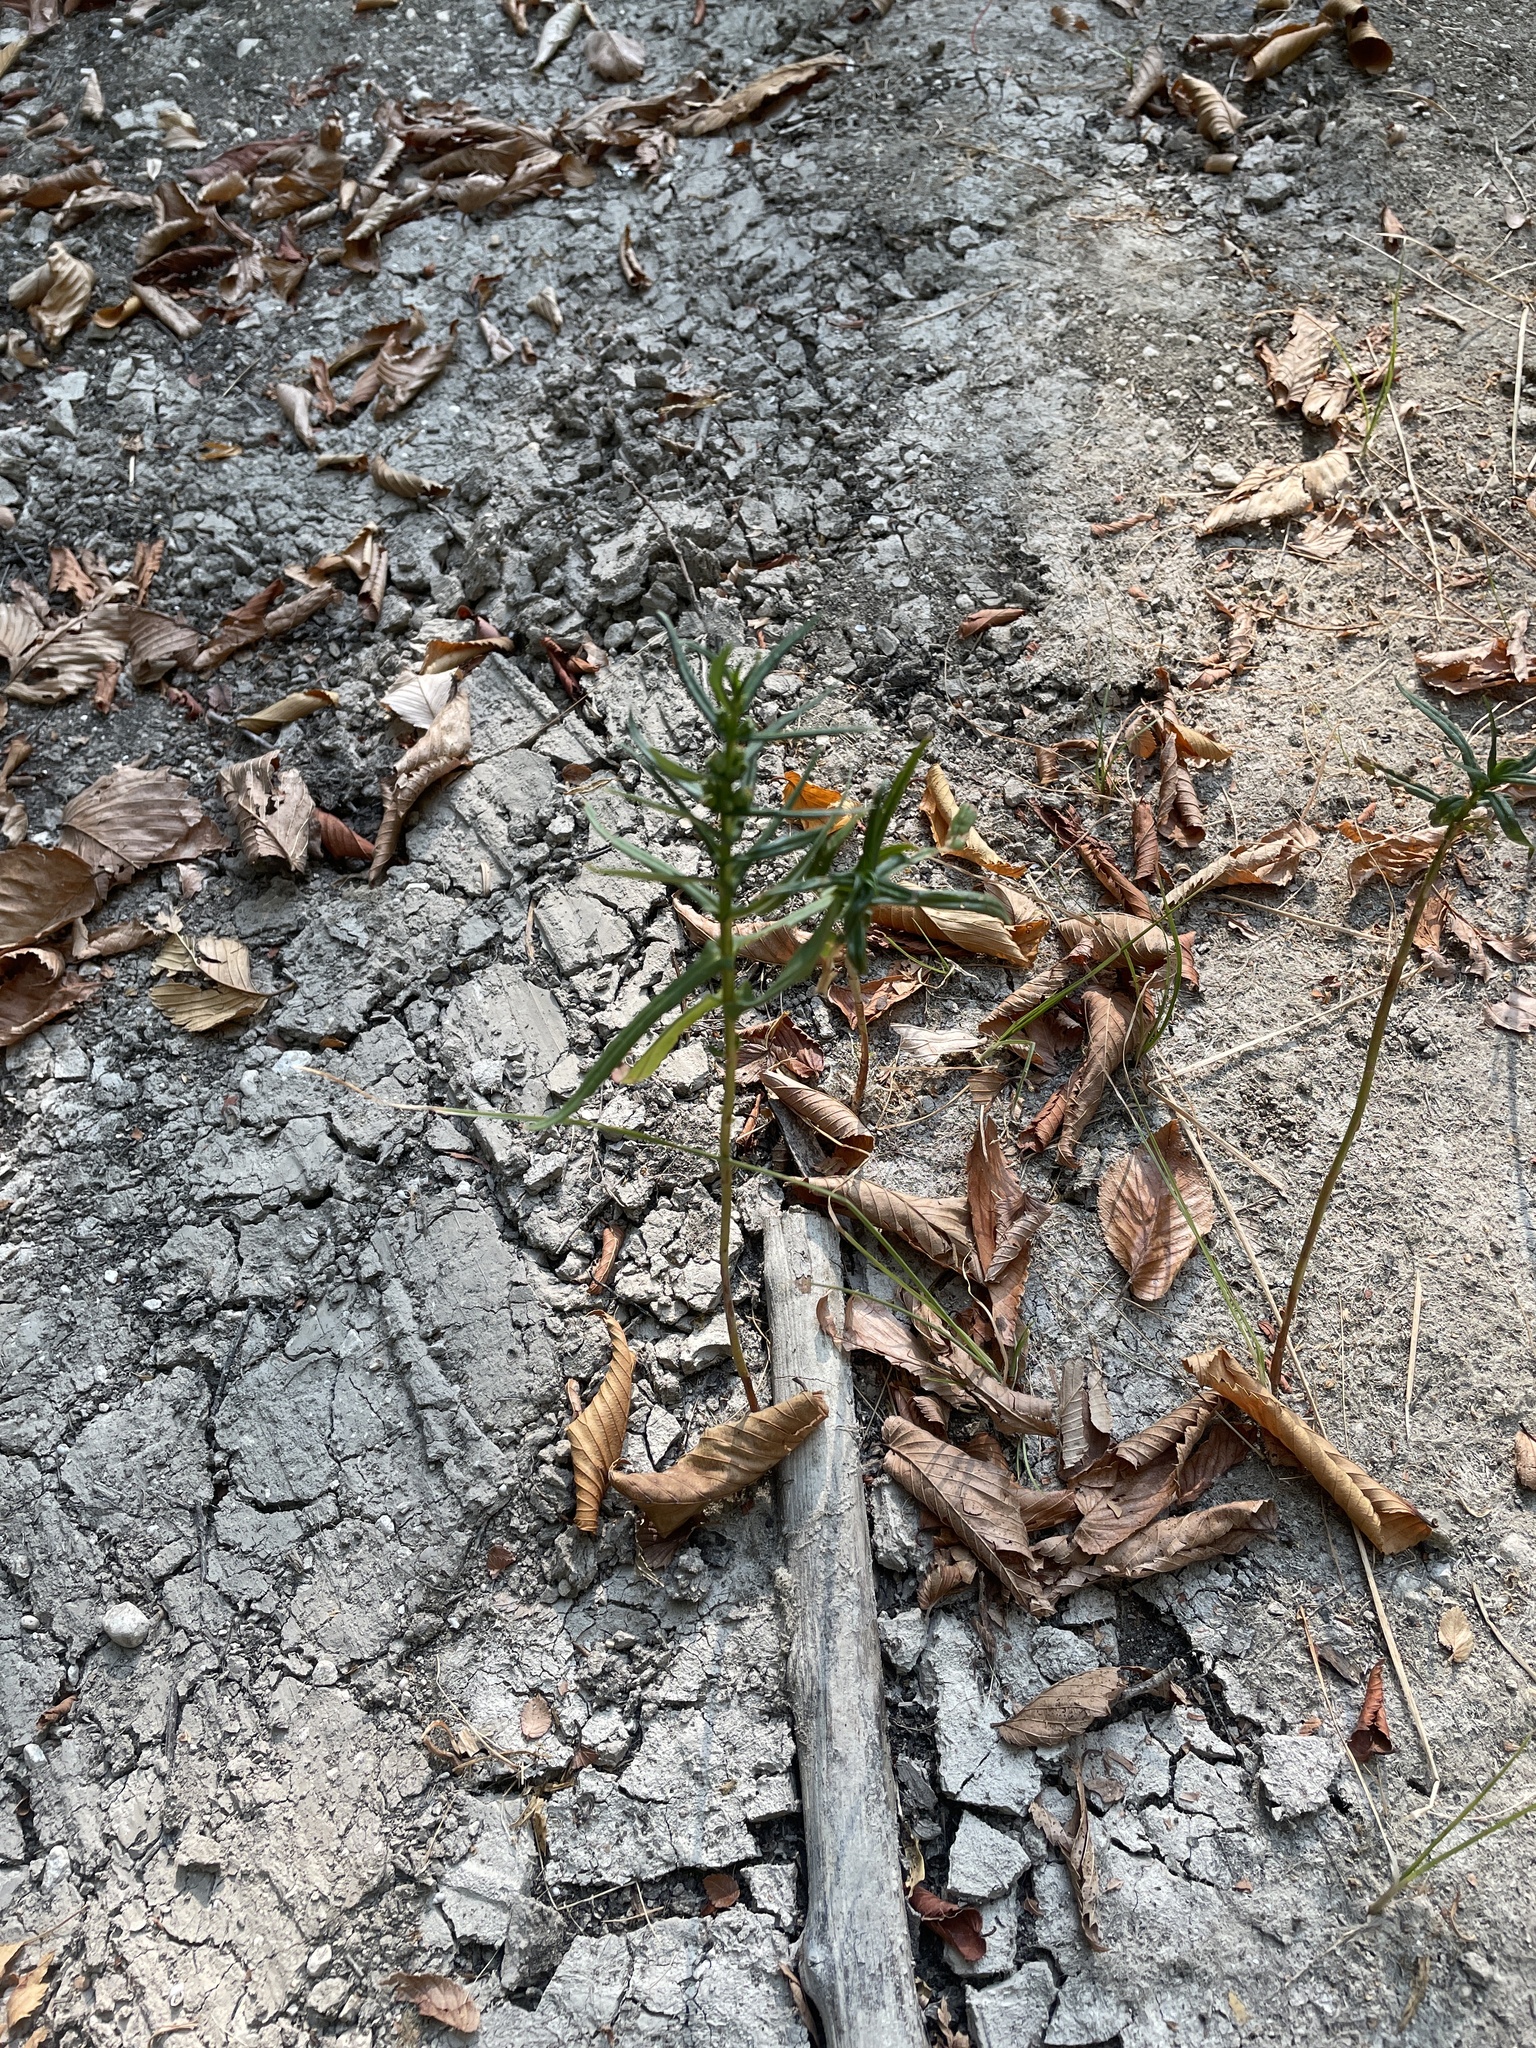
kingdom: Plantae
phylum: Tracheophyta
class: Magnoliopsida
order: Myrtales
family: Lythraceae
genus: Ammannia
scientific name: Ammannia coccinea
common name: Valley redstem
